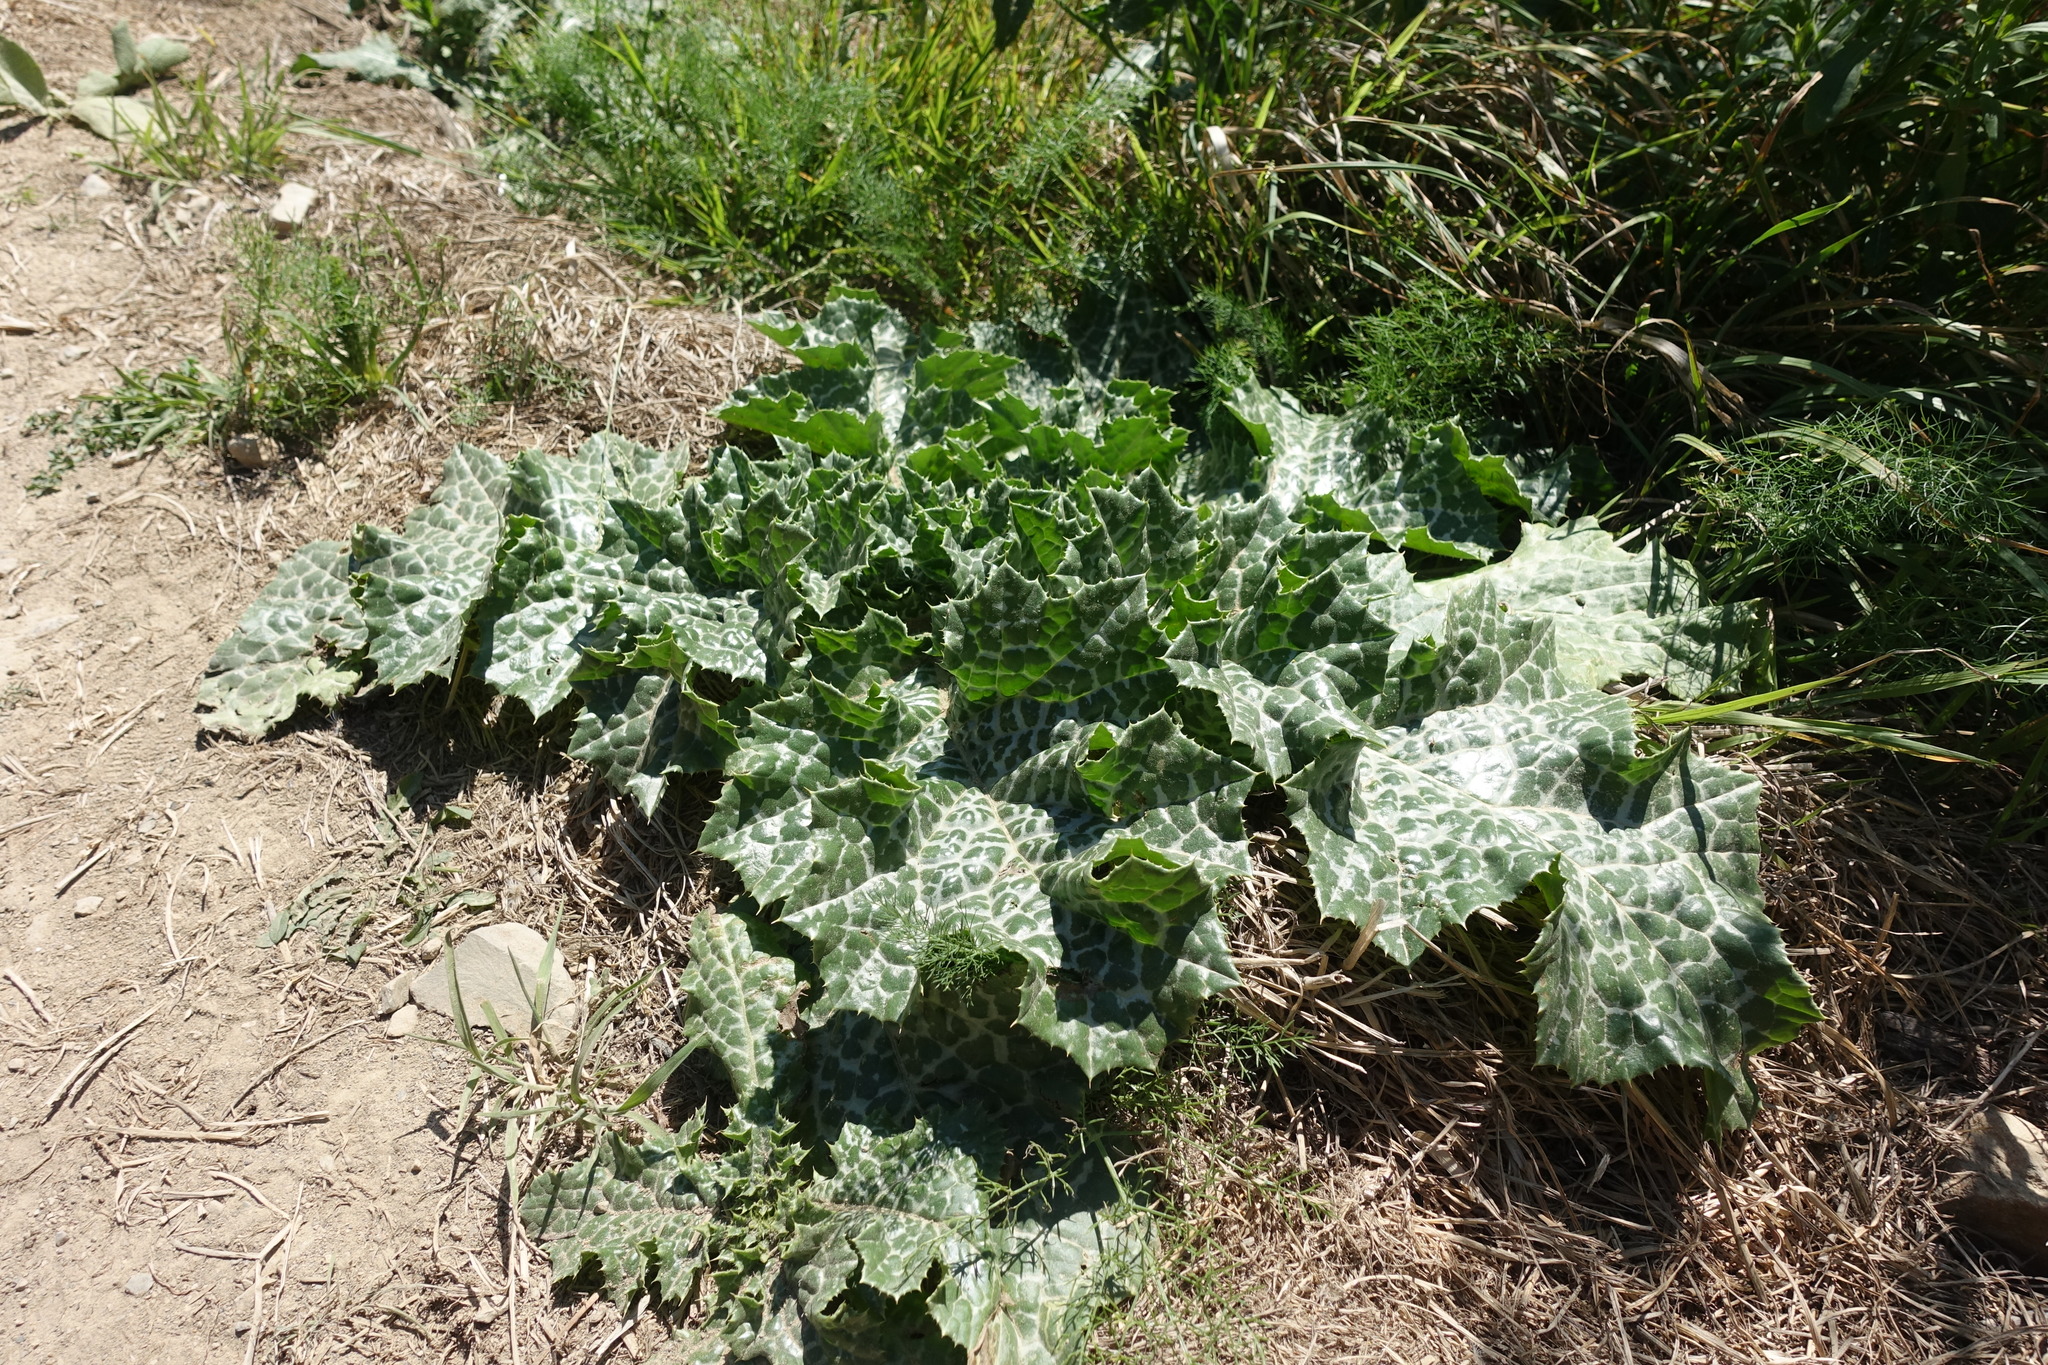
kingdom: Plantae
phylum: Tracheophyta
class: Magnoliopsida
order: Asterales
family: Asteraceae
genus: Silybum
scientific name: Silybum marianum
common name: Milk thistle
